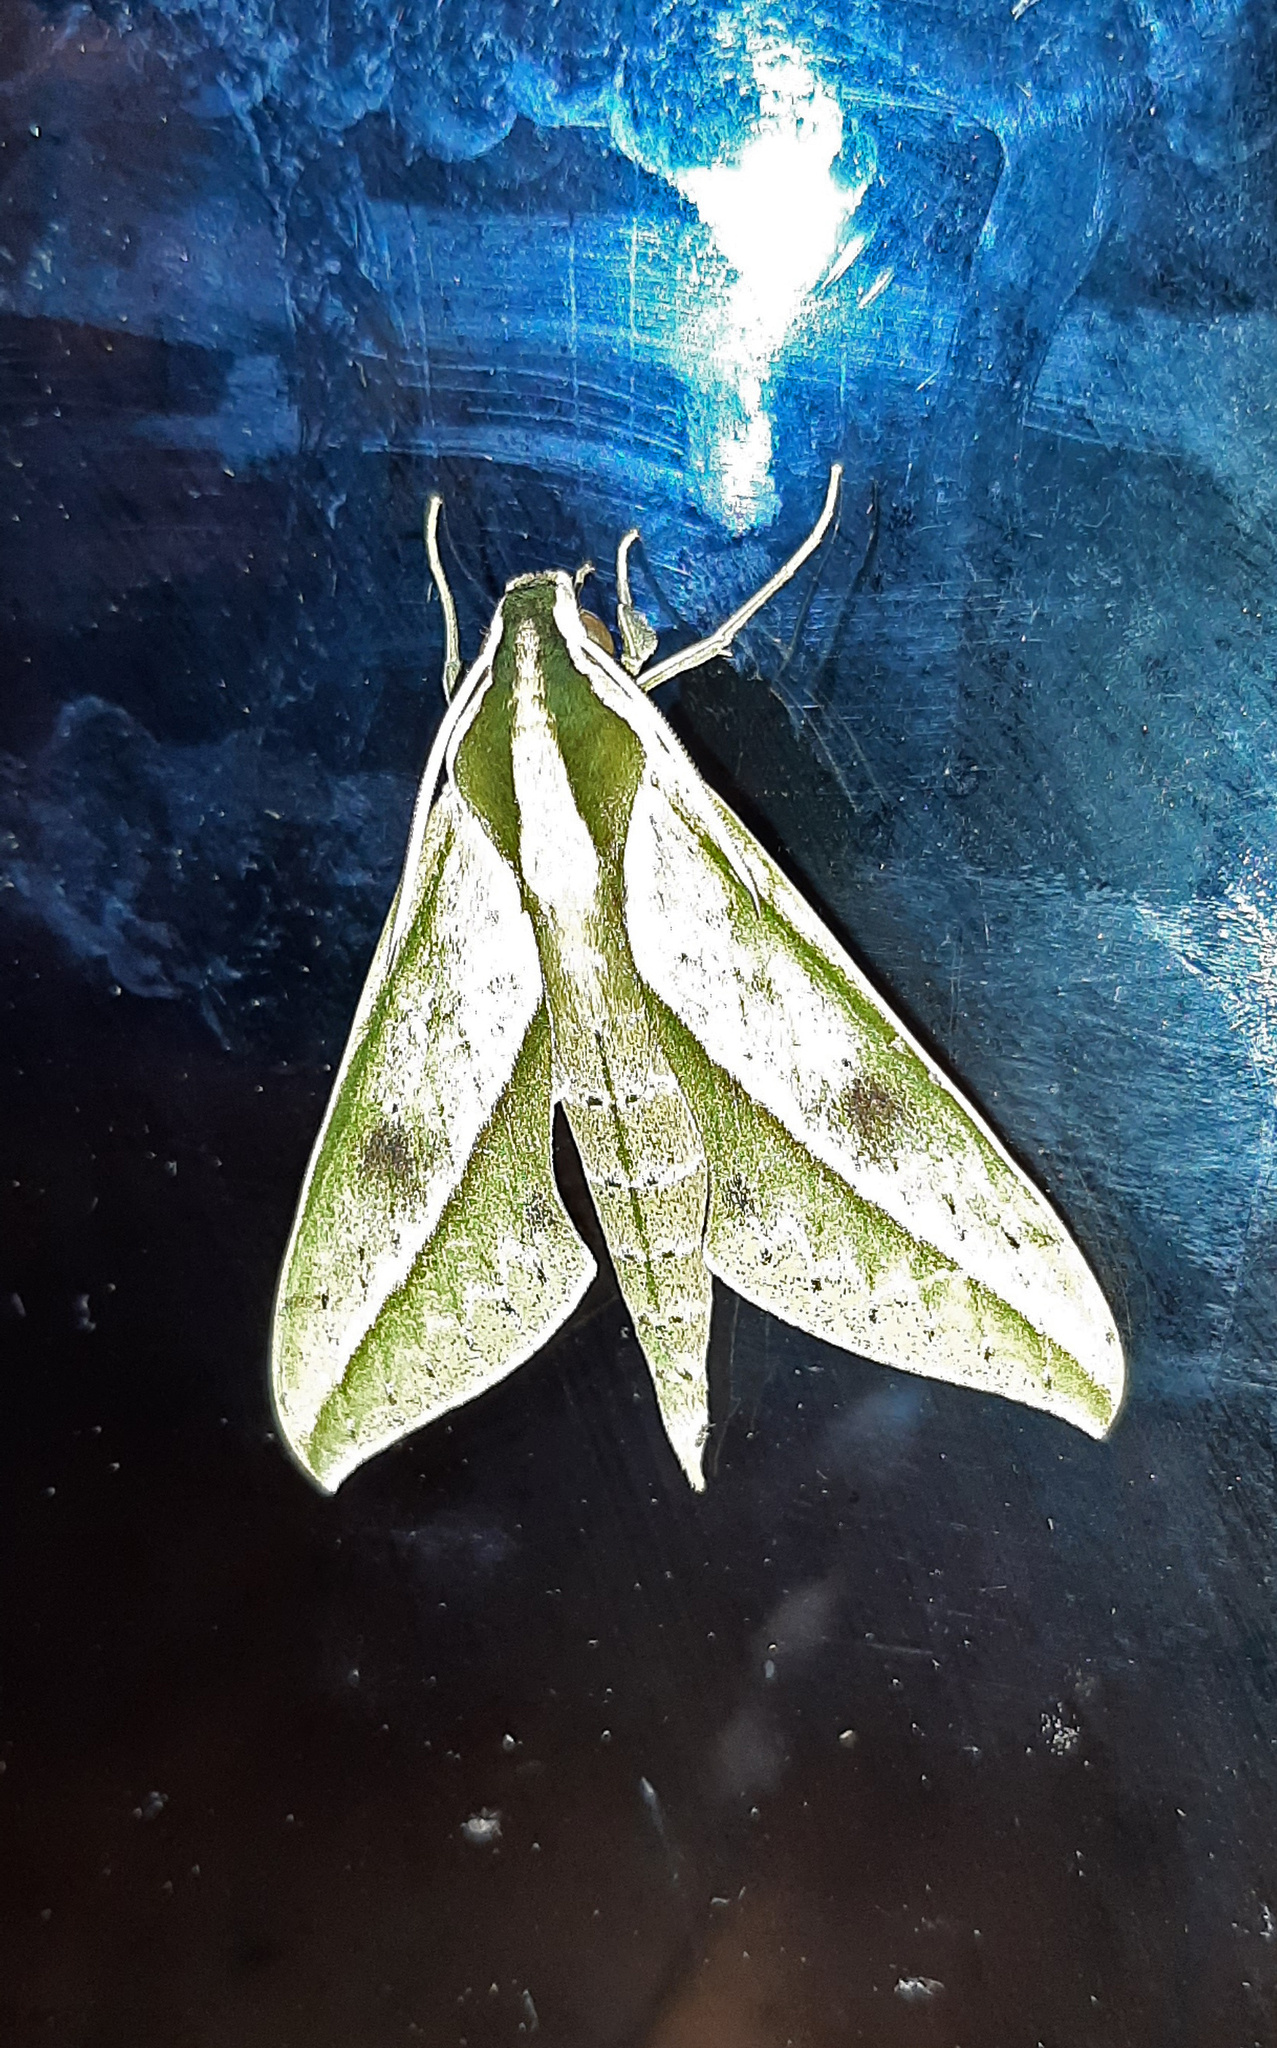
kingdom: Animalia
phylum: Arthropoda
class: Insecta
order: Lepidoptera
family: Sphingidae
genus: Xylophanes
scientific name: Xylophanes docilis
